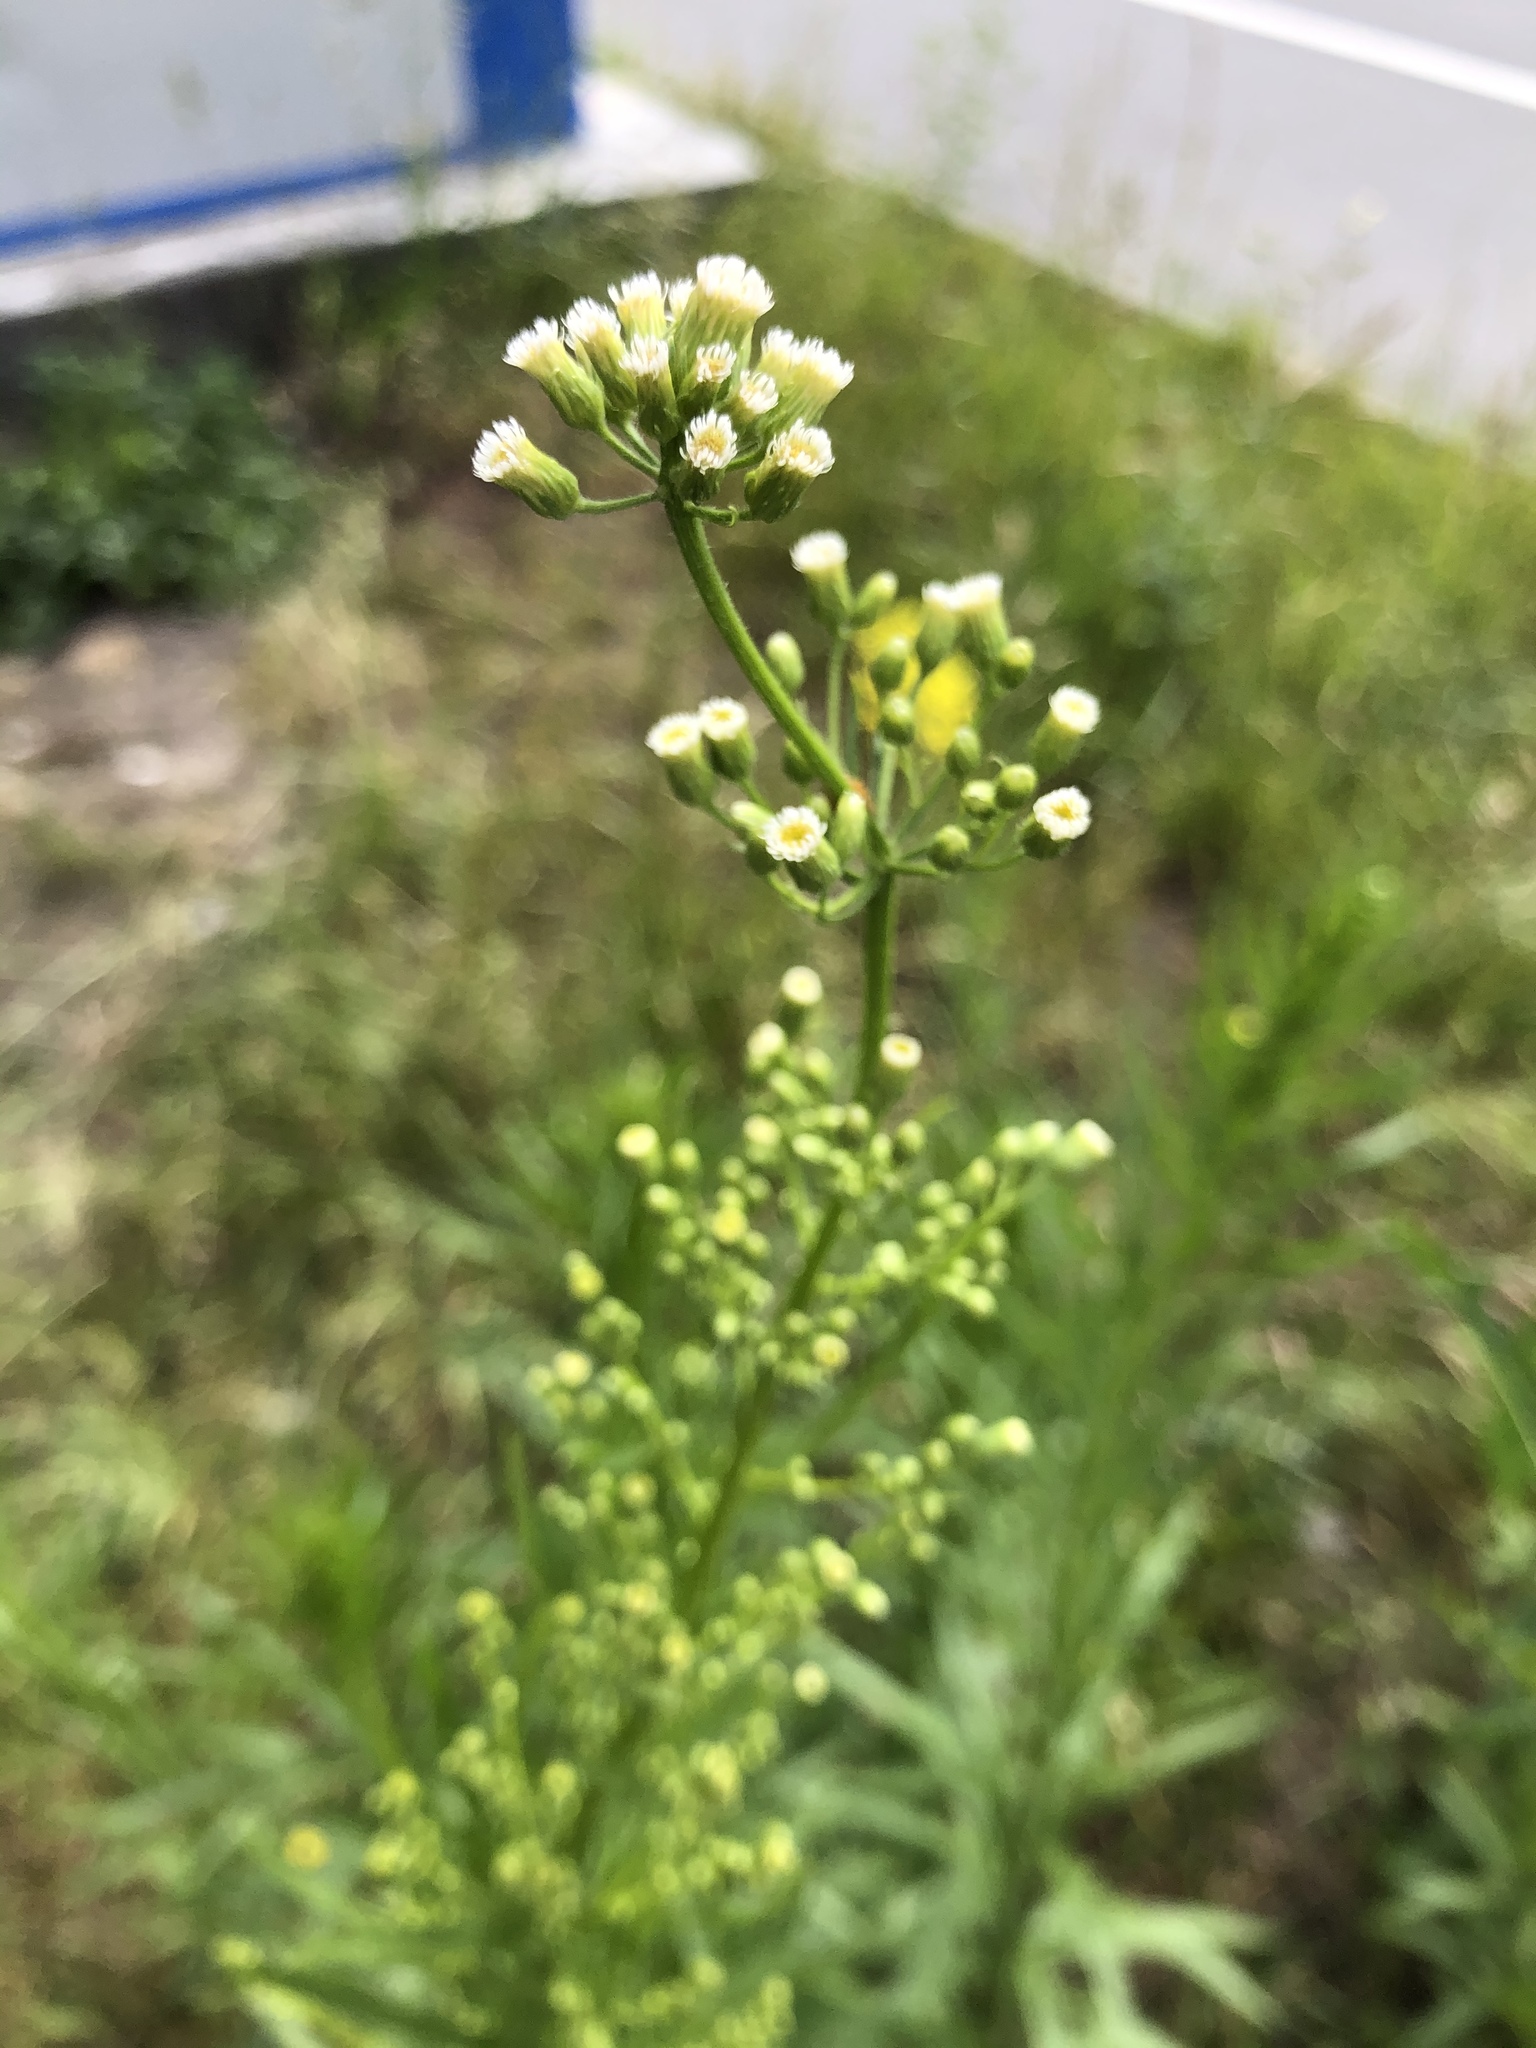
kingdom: Plantae
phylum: Tracheophyta
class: Magnoliopsida
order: Asterales
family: Asteraceae
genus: Erigeron
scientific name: Erigeron canadensis
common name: Canadian fleabane
